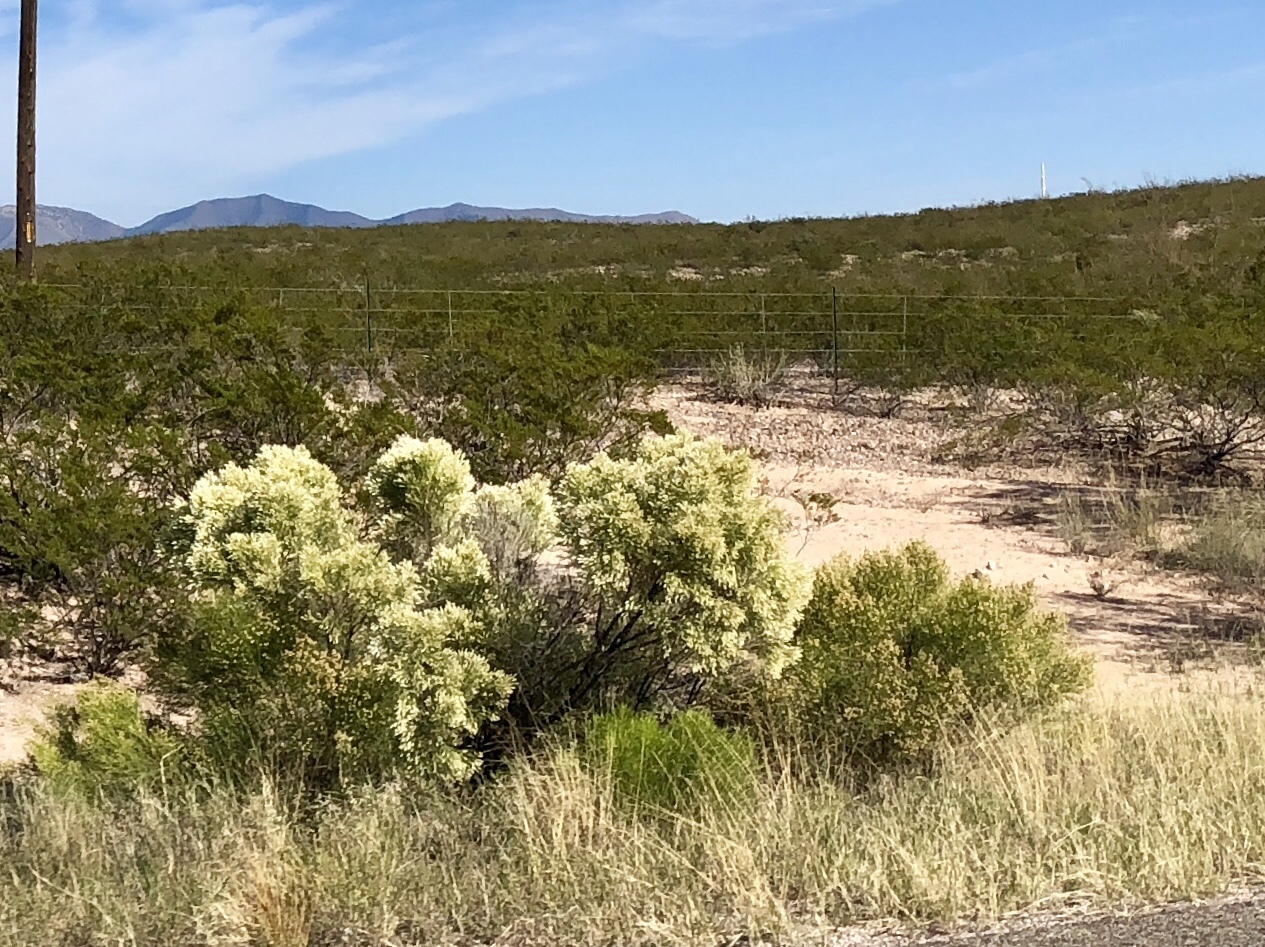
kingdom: Plantae
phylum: Tracheophyta
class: Magnoliopsida
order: Asterales
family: Asteraceae
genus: Baccharis
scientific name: Baccharis sarothroides
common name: Desert-broom
